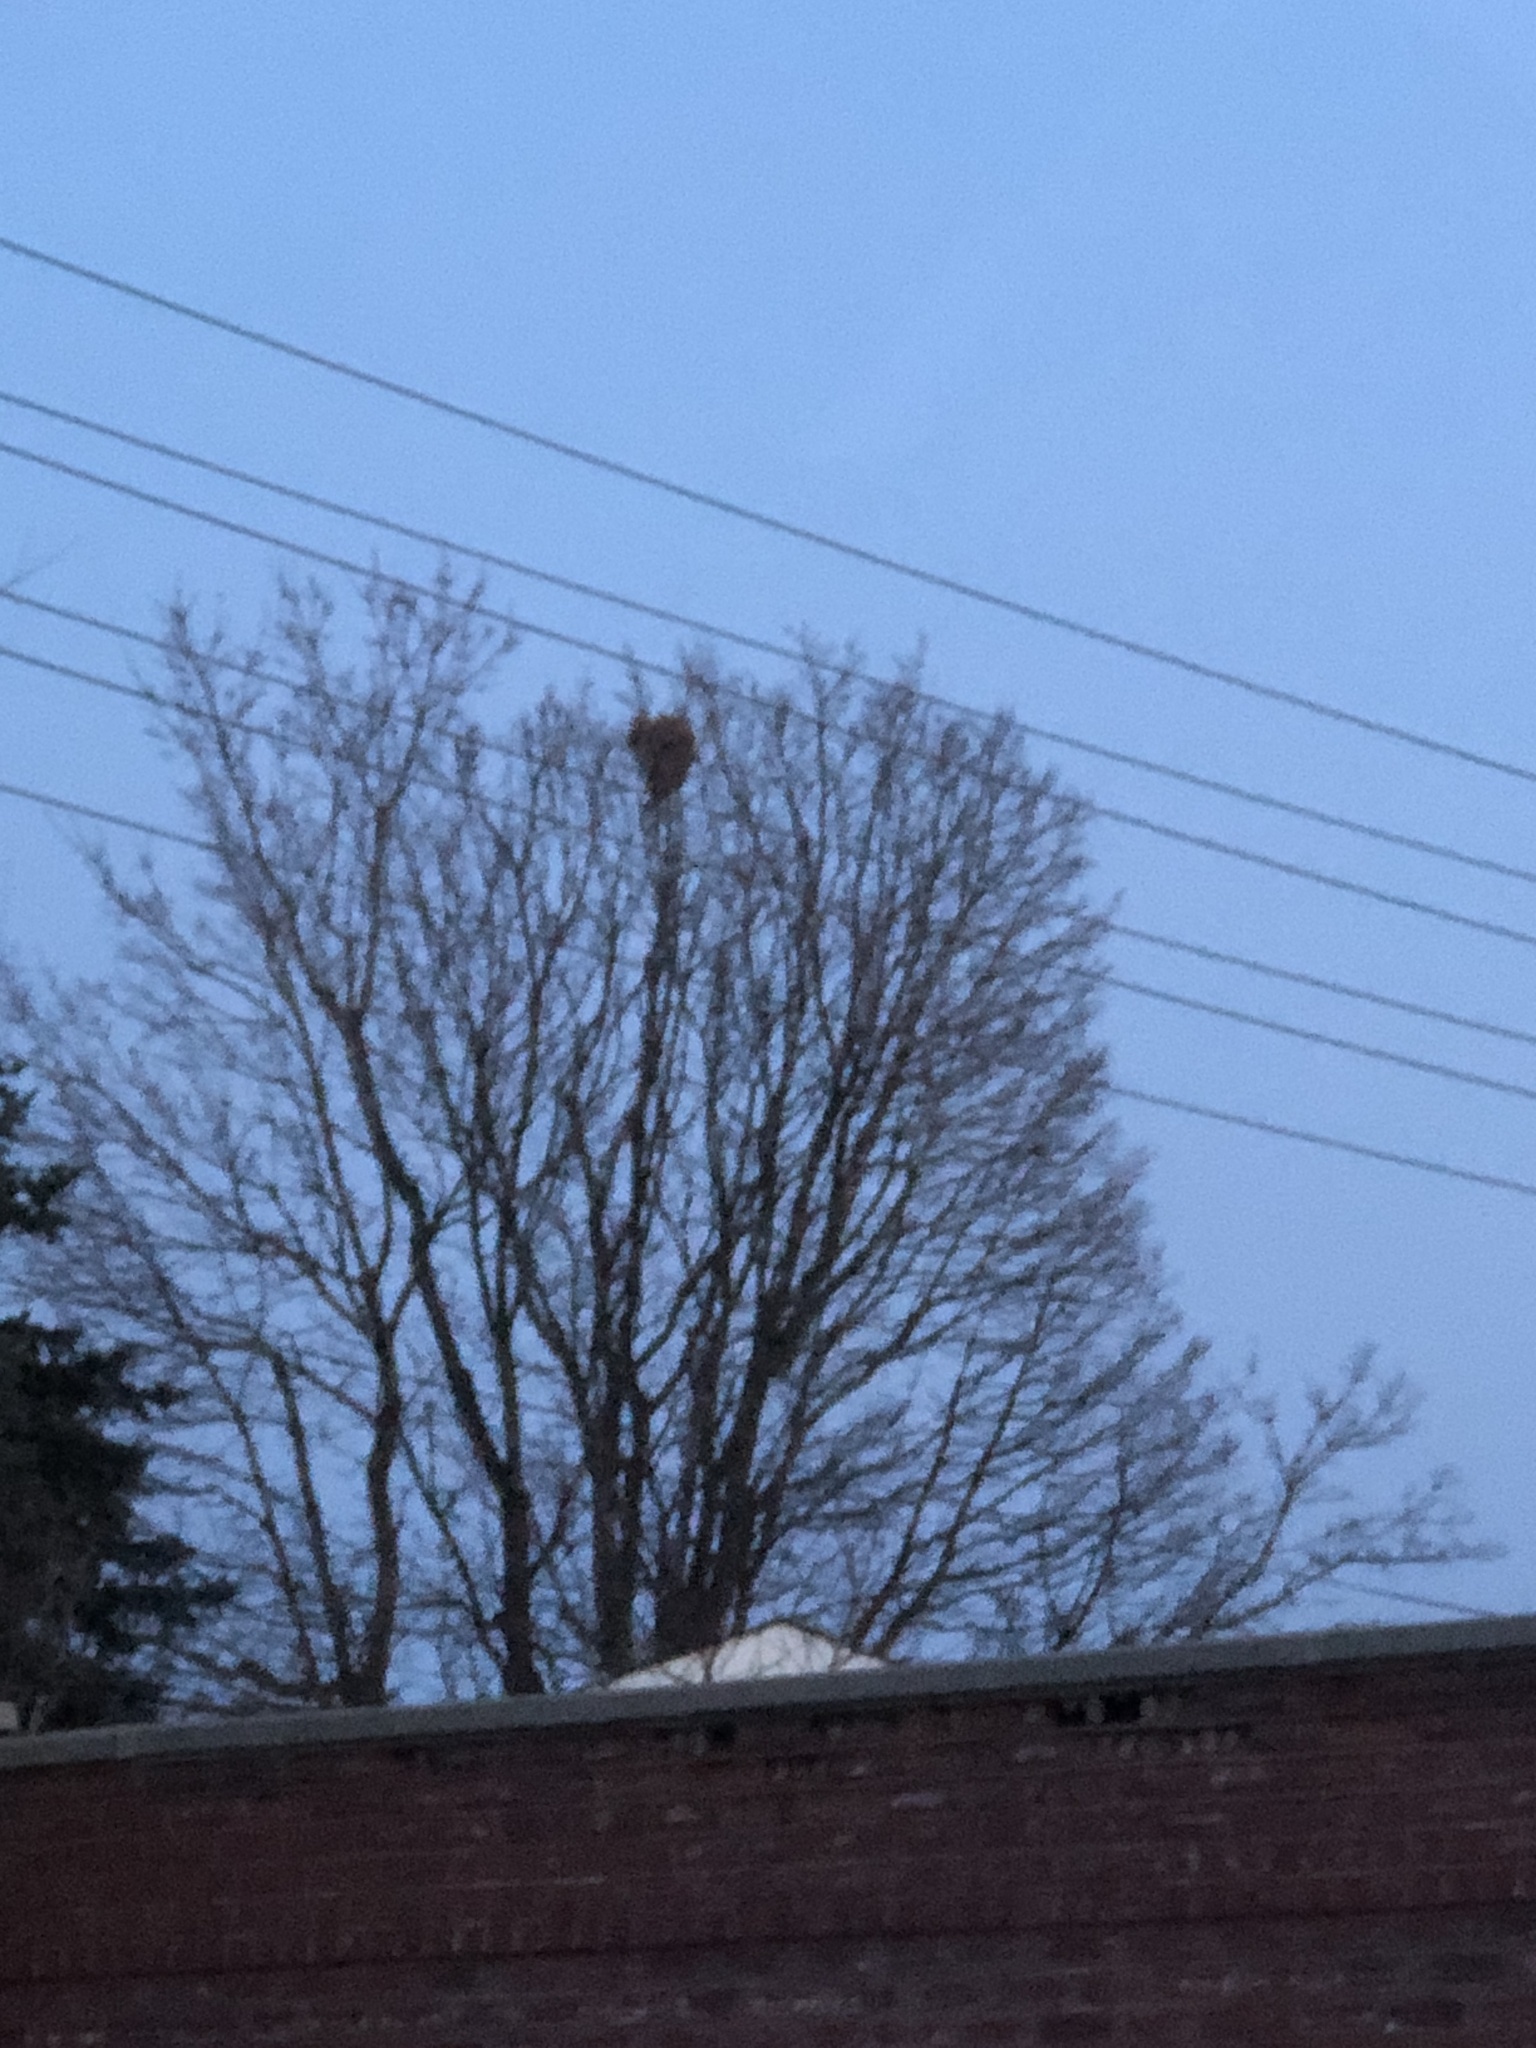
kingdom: Animalia
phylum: Chordata
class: Mammalia
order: Rodentia
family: Sciuridae
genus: Sciurus
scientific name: Sciurus carolinensis
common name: Eastern gray squirrel
